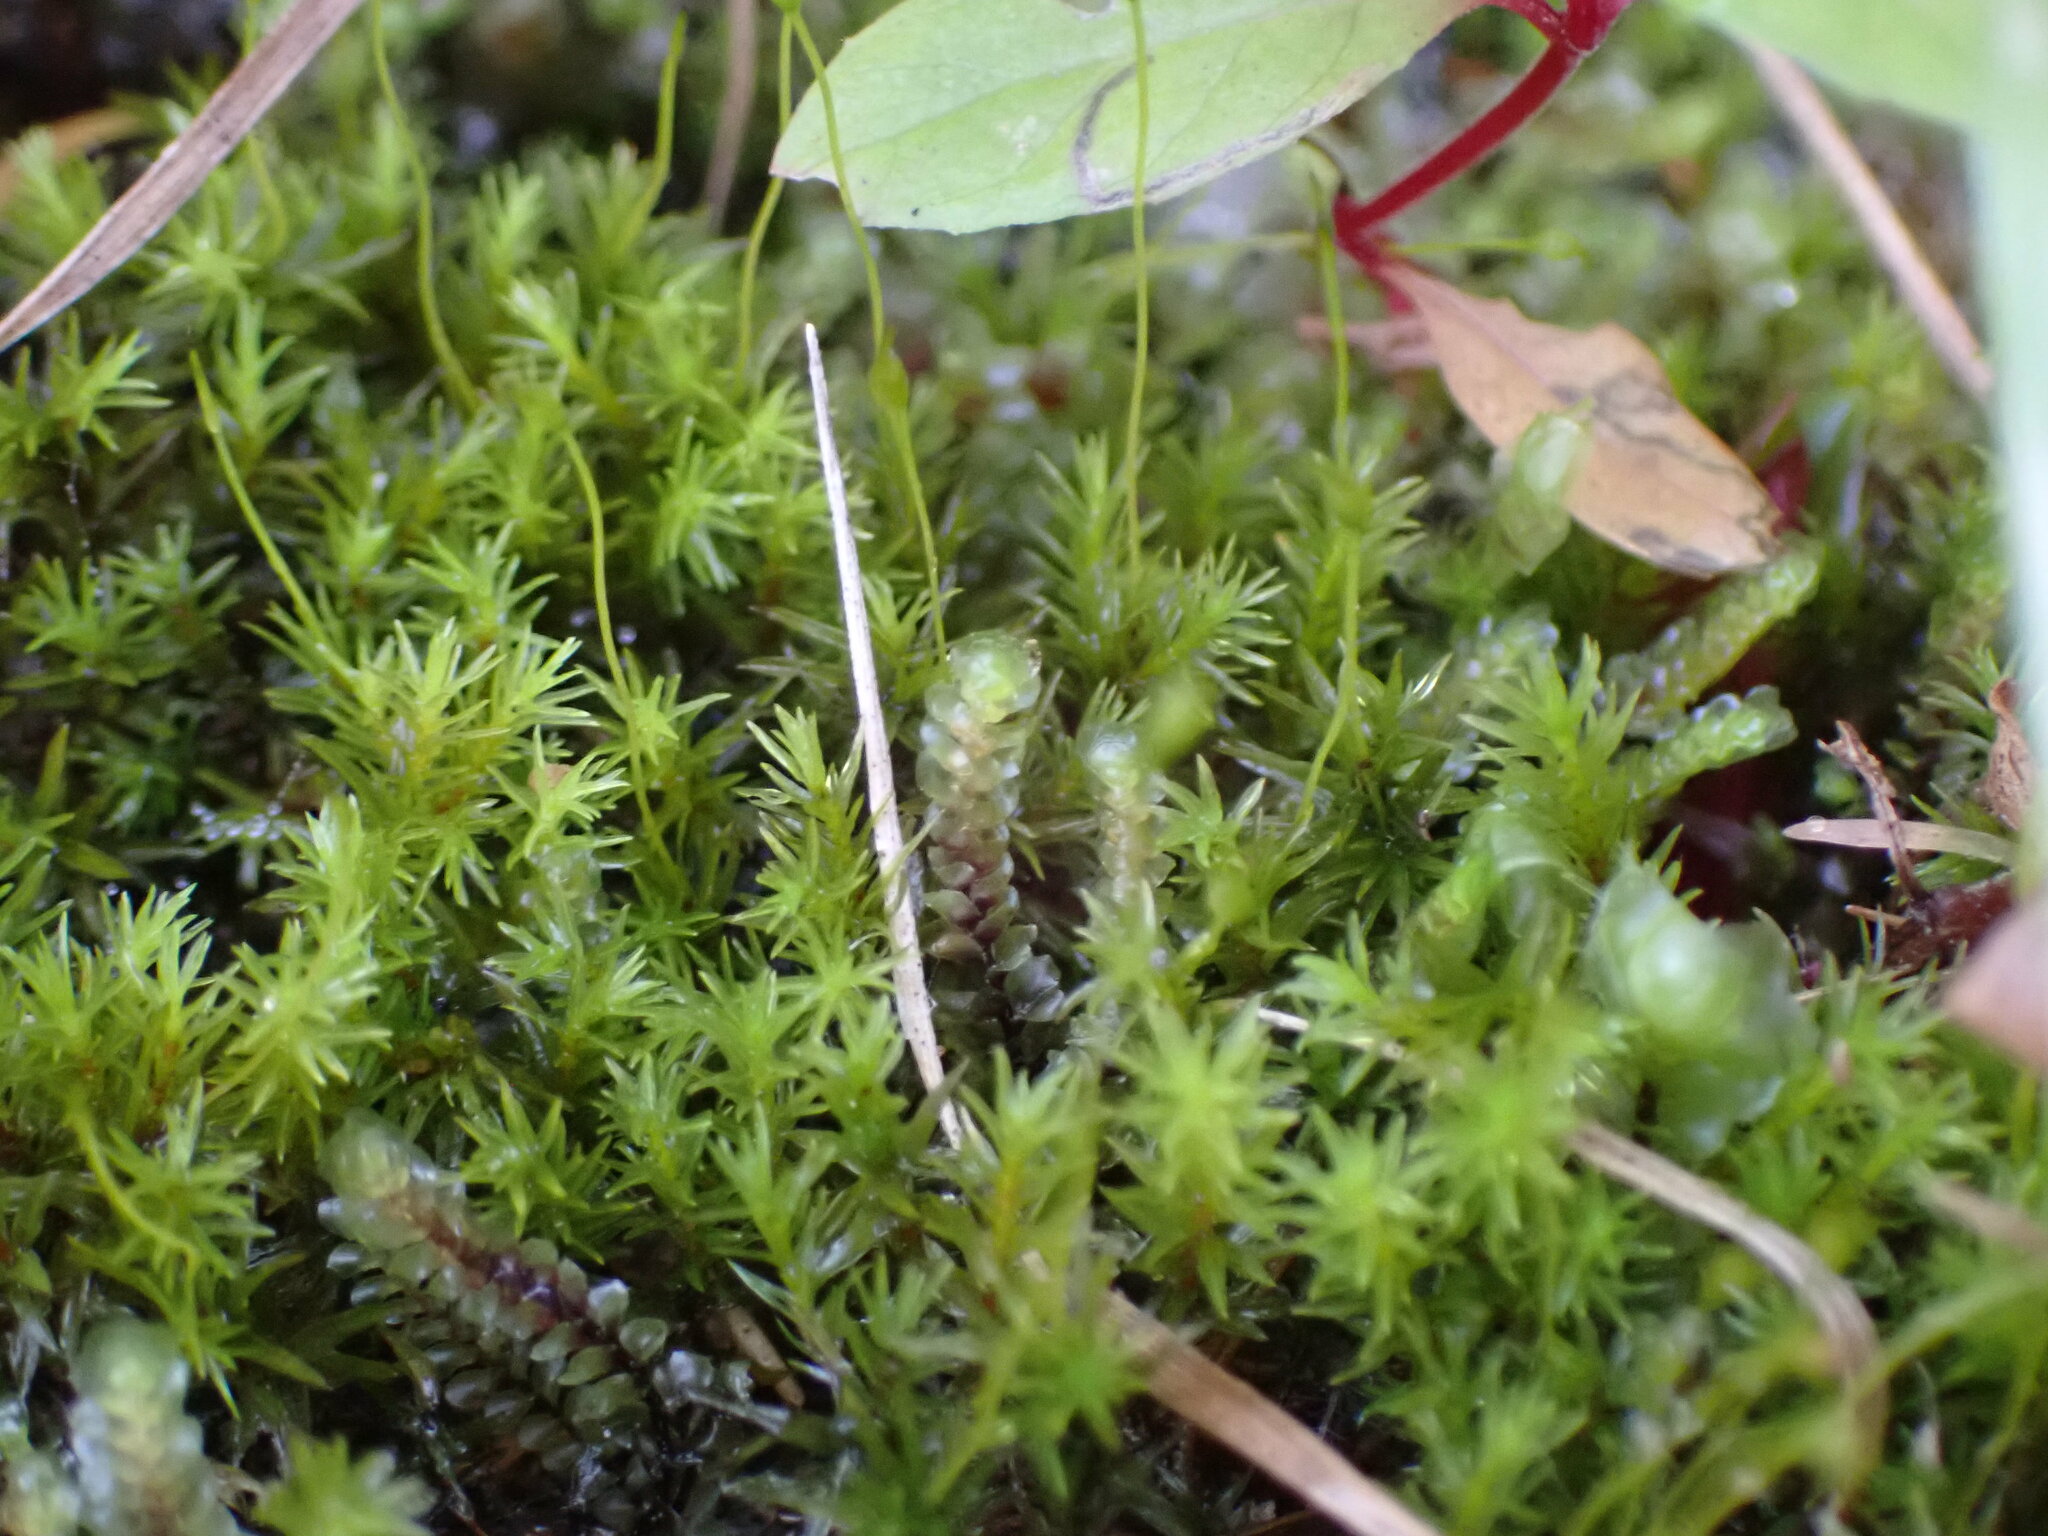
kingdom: Plantae
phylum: Bryophyta
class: Bryopsida
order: Dicranales
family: Aongstroemiaceae
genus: Dichodontium
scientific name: Dichodontium pellucidum
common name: Transparent fork moss
